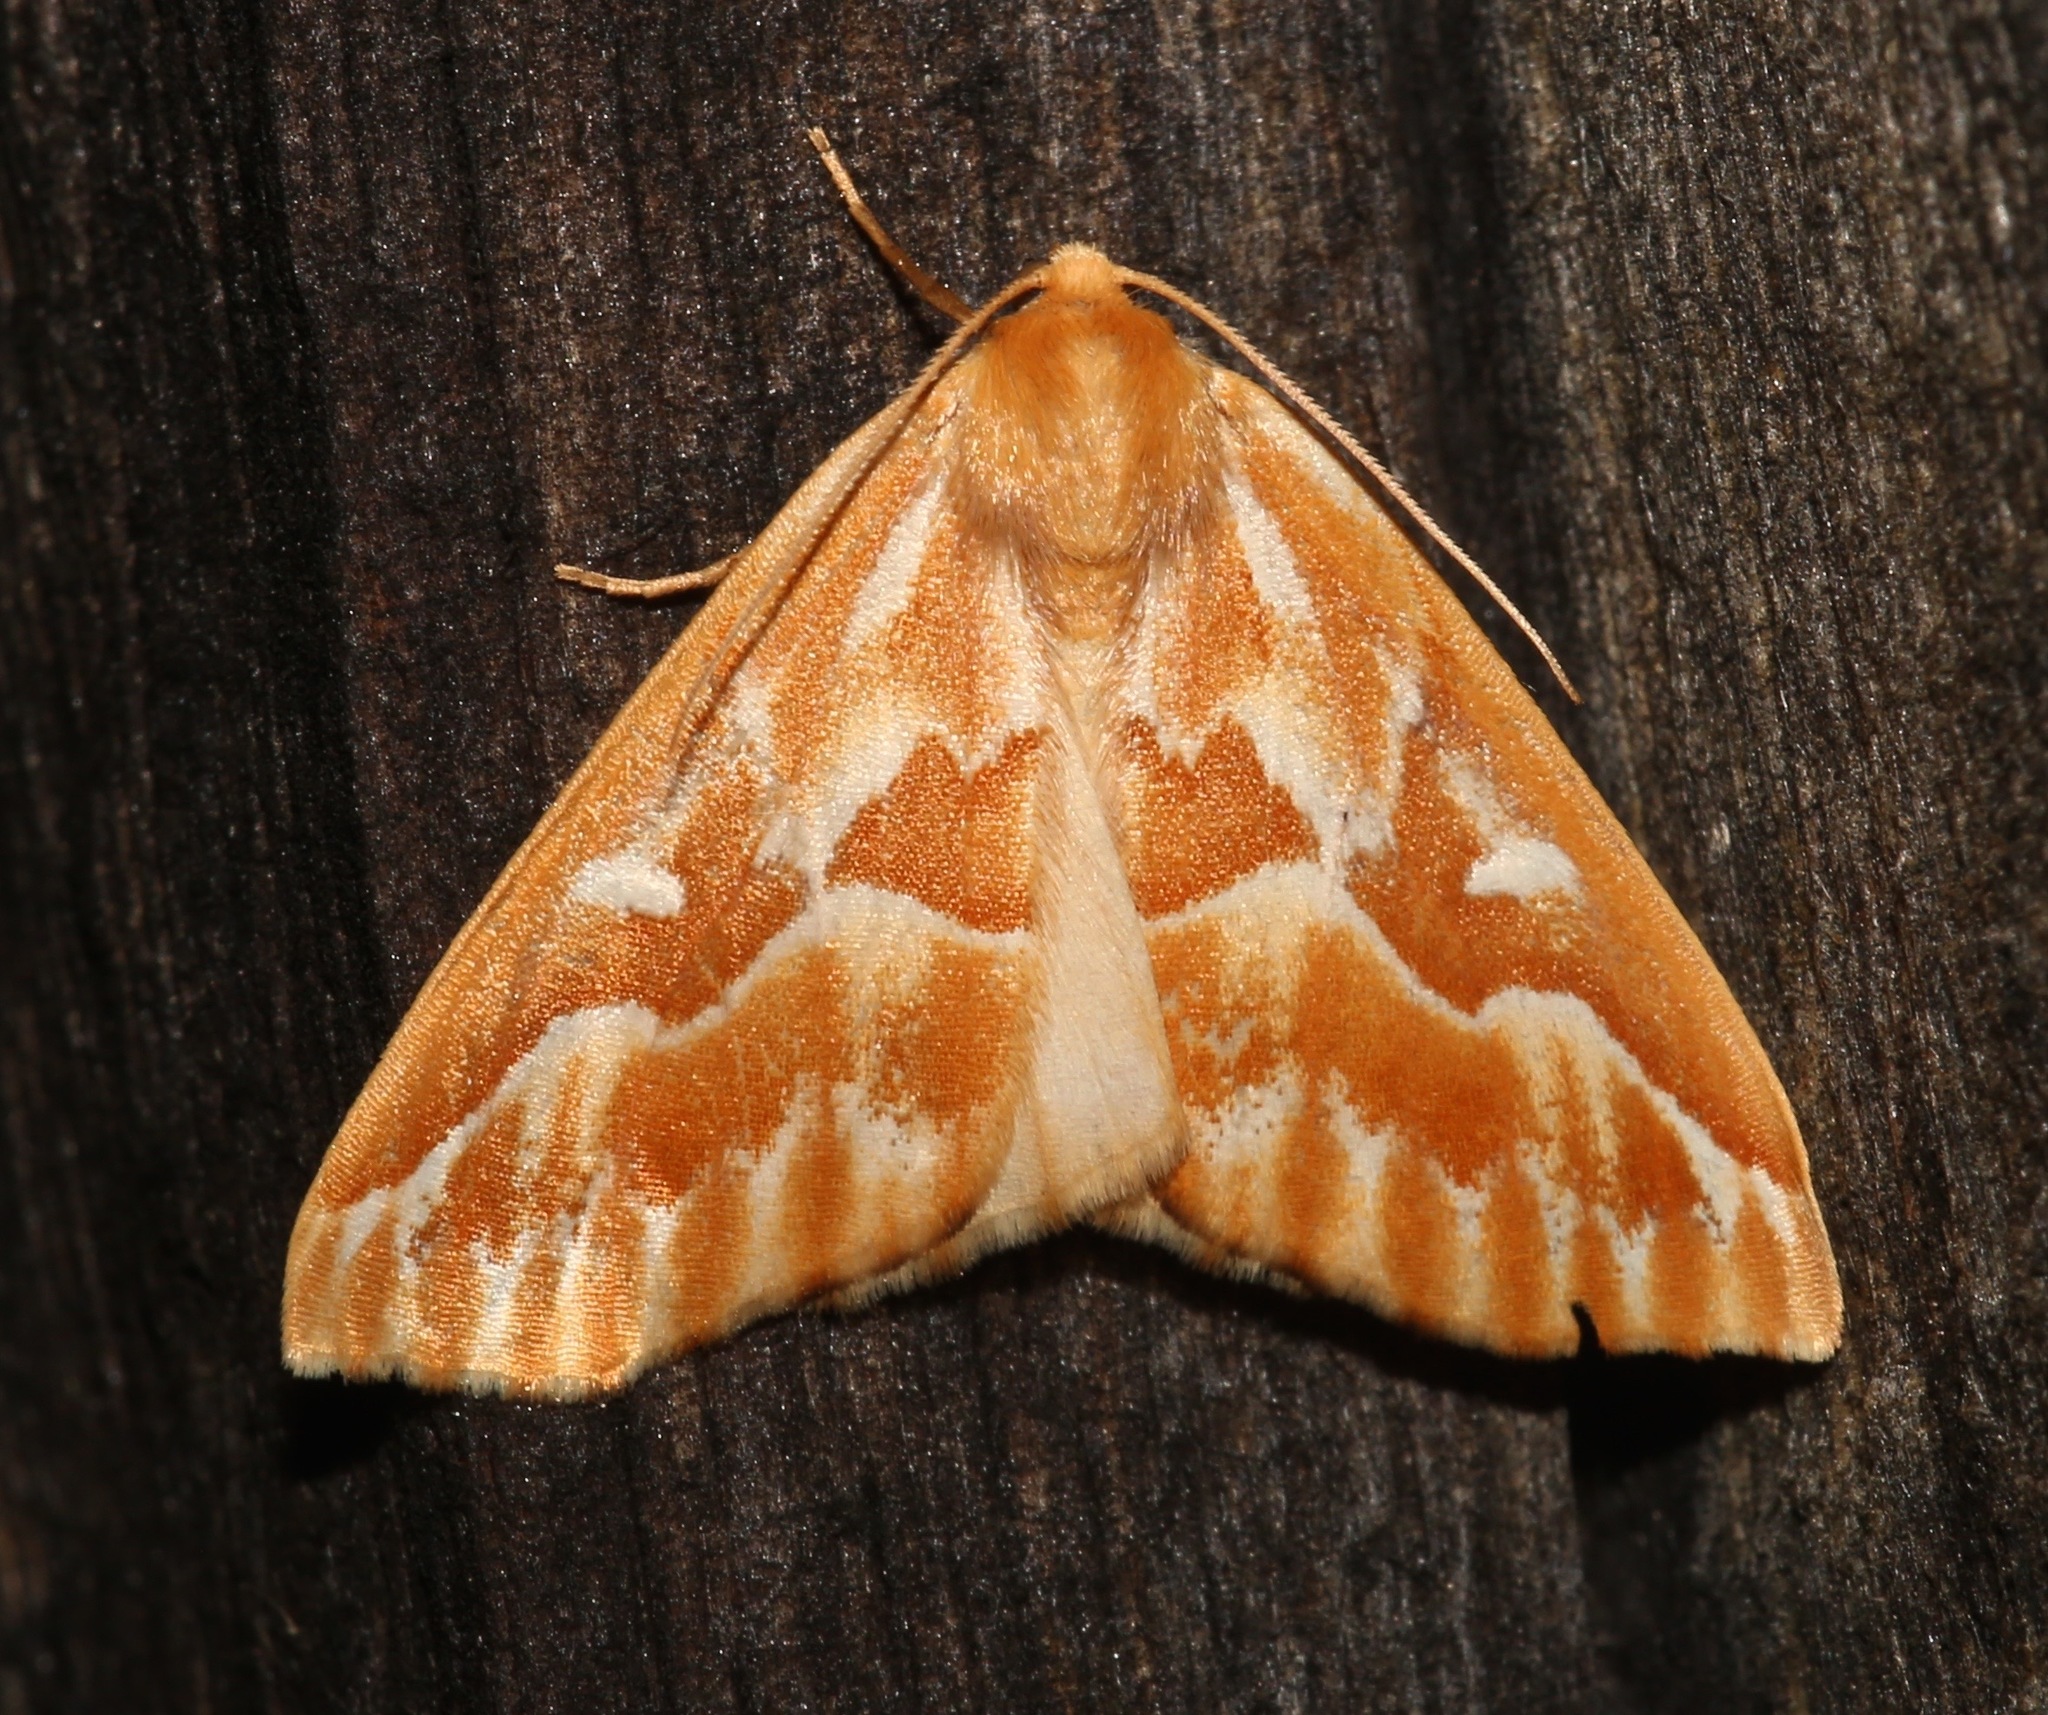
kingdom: Animalia
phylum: Arthropoda
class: Insecta
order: Lepidoptera
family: Geometridae
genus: Caripeta
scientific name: Caripeta piniata
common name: Northern pine looper moth
